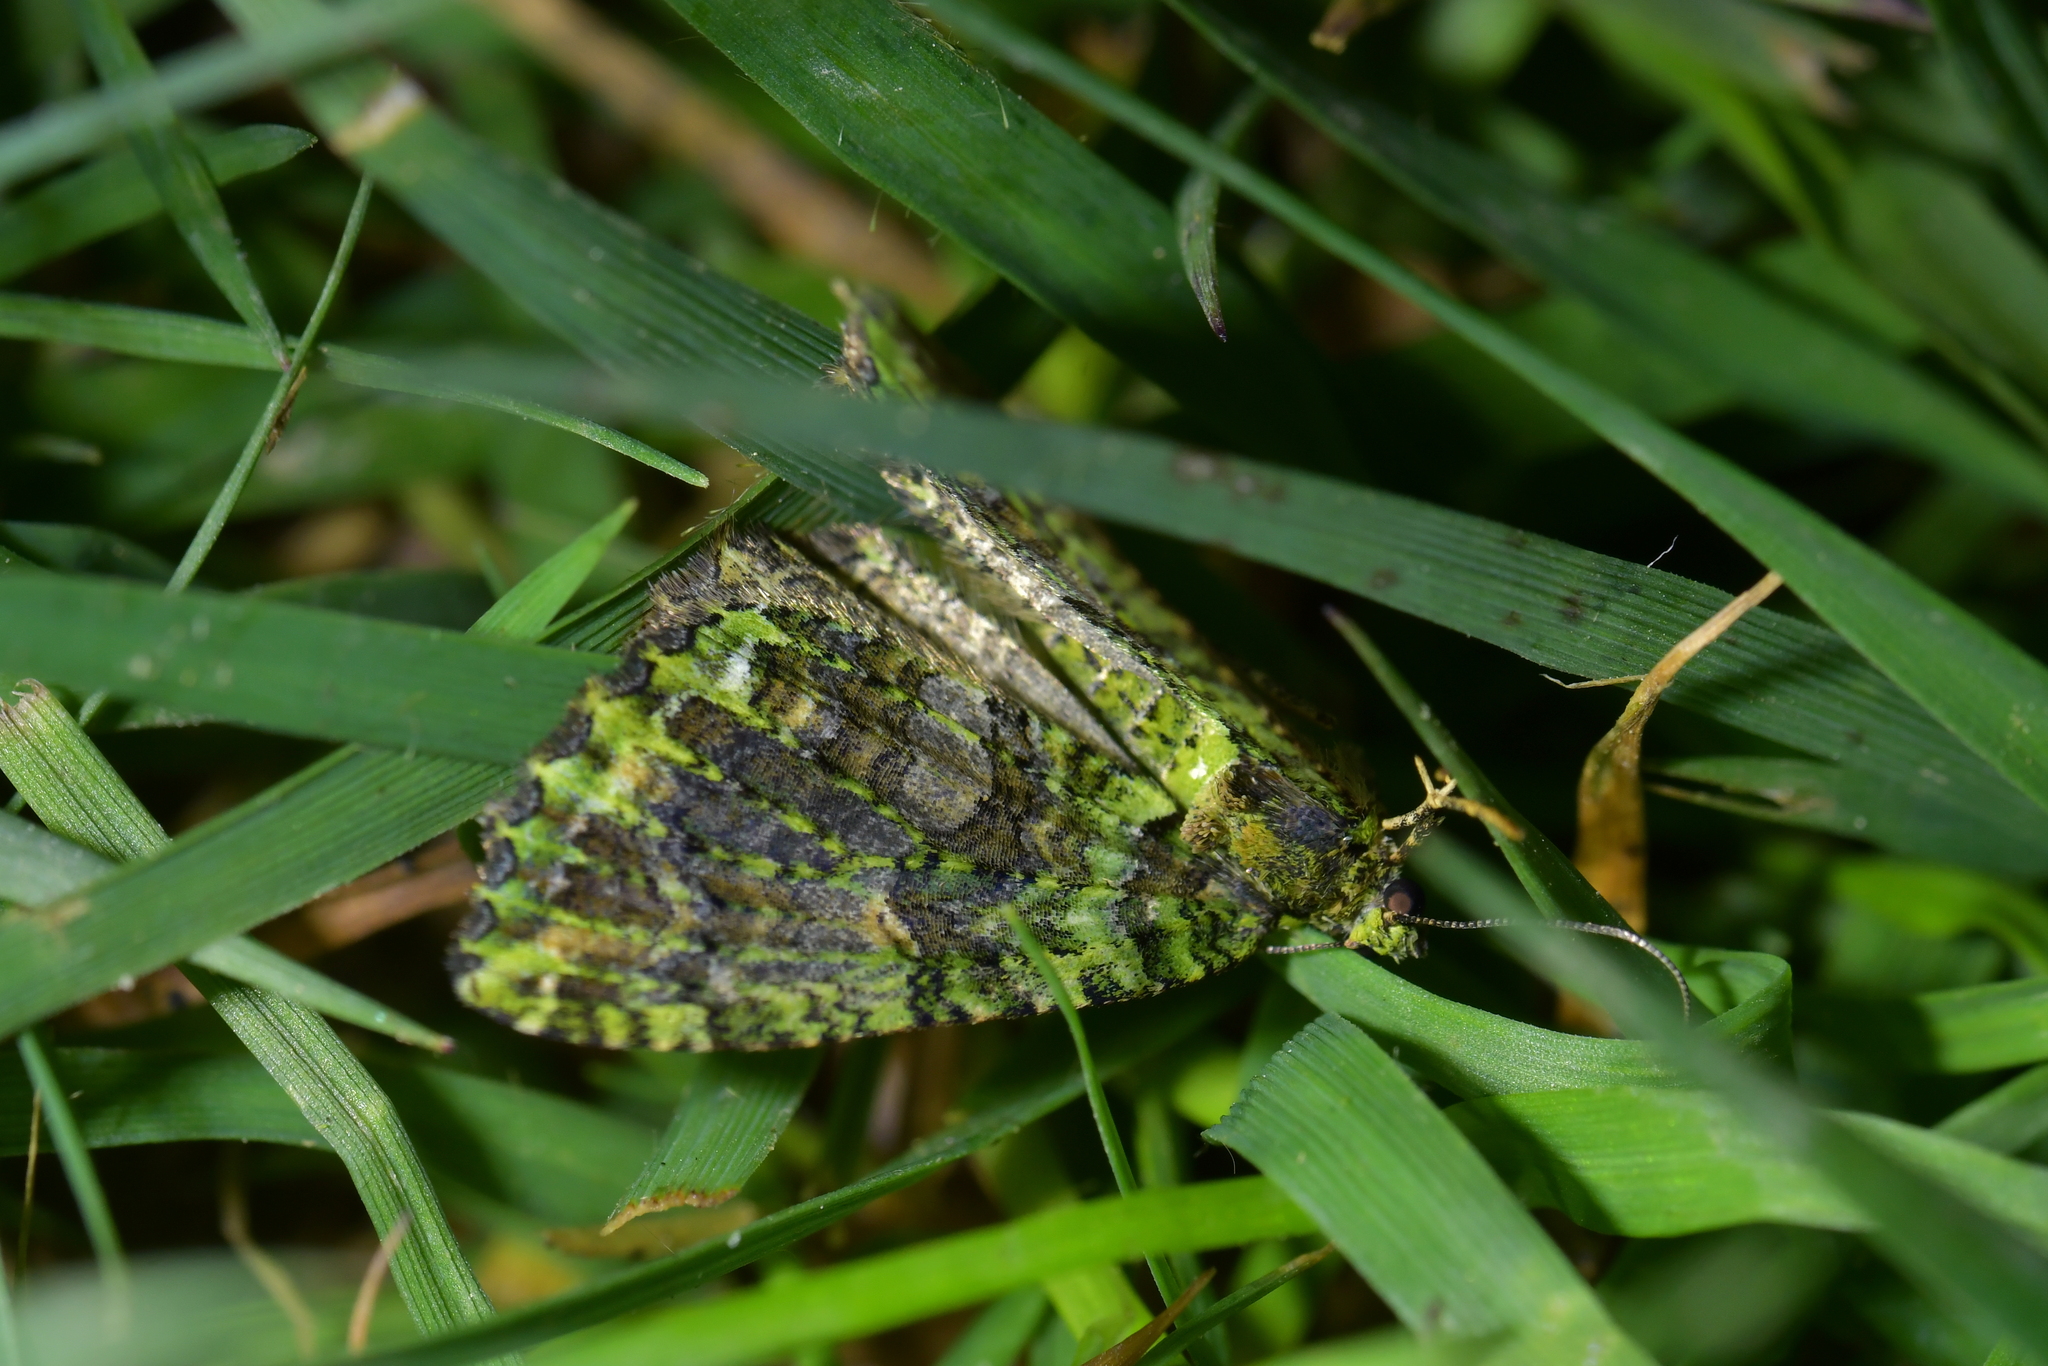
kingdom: Animalia
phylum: Arthropoda
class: Insecta
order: Lepidoptera
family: Geometridae
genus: Austrocidaria
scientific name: Austrocidaria similata
